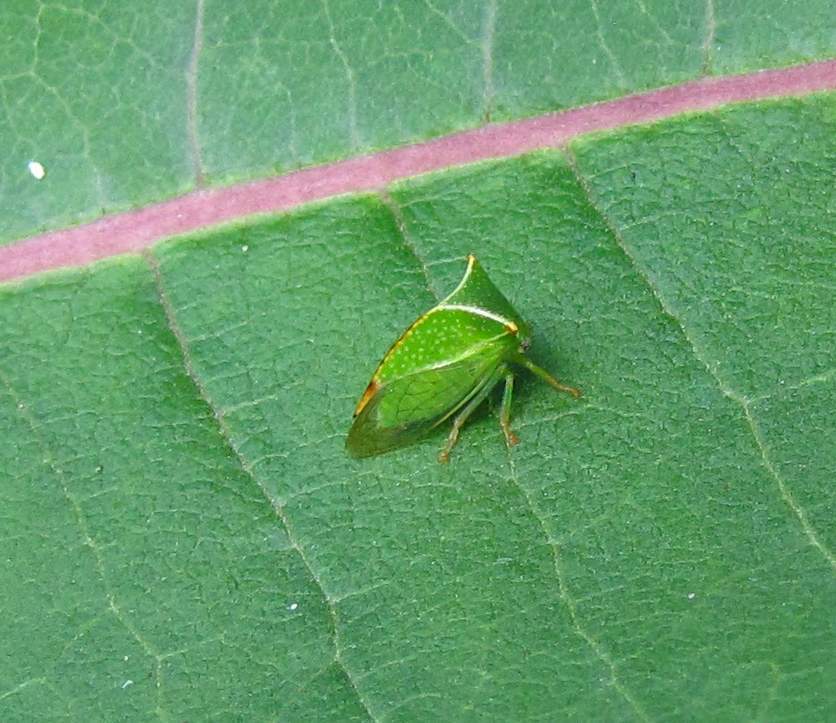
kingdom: Animalia
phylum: Arthropoda
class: Insecta
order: Hemiptera
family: Membracidae
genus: Stictocephala
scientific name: Stictocephala bisonia
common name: American buffalo treehopper
